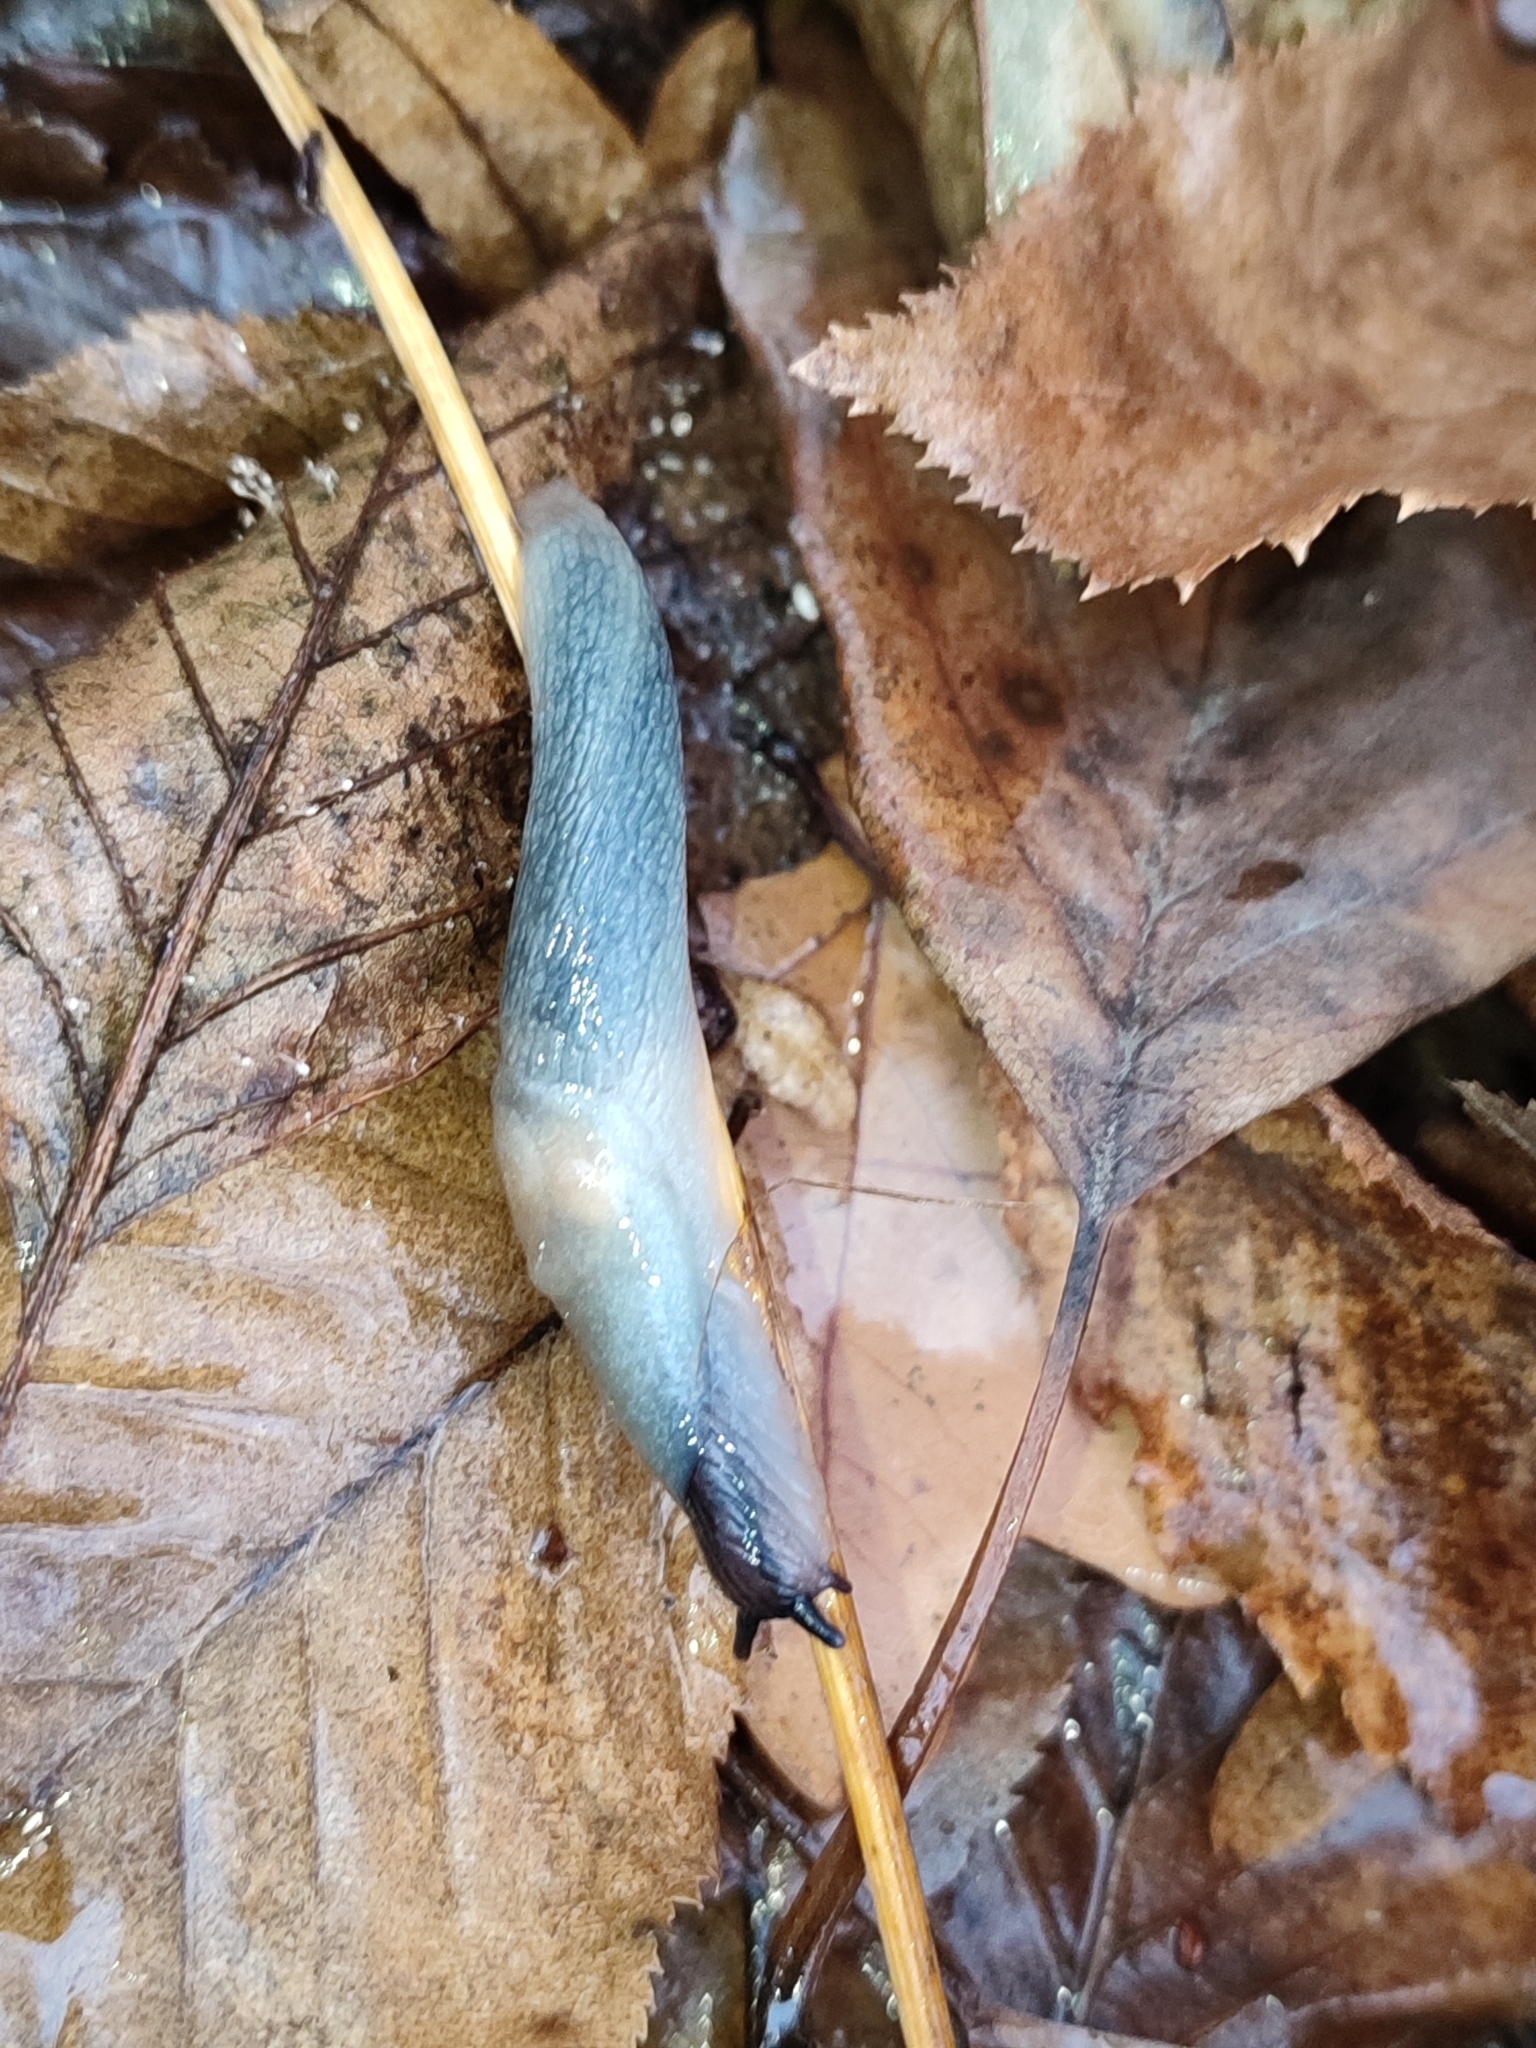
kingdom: Animalia
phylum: Mollusca
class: Gastropoda
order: Stylommatophora
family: Agriolimacidae
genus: Krynickillus
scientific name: Krynickillus melanocephalus
